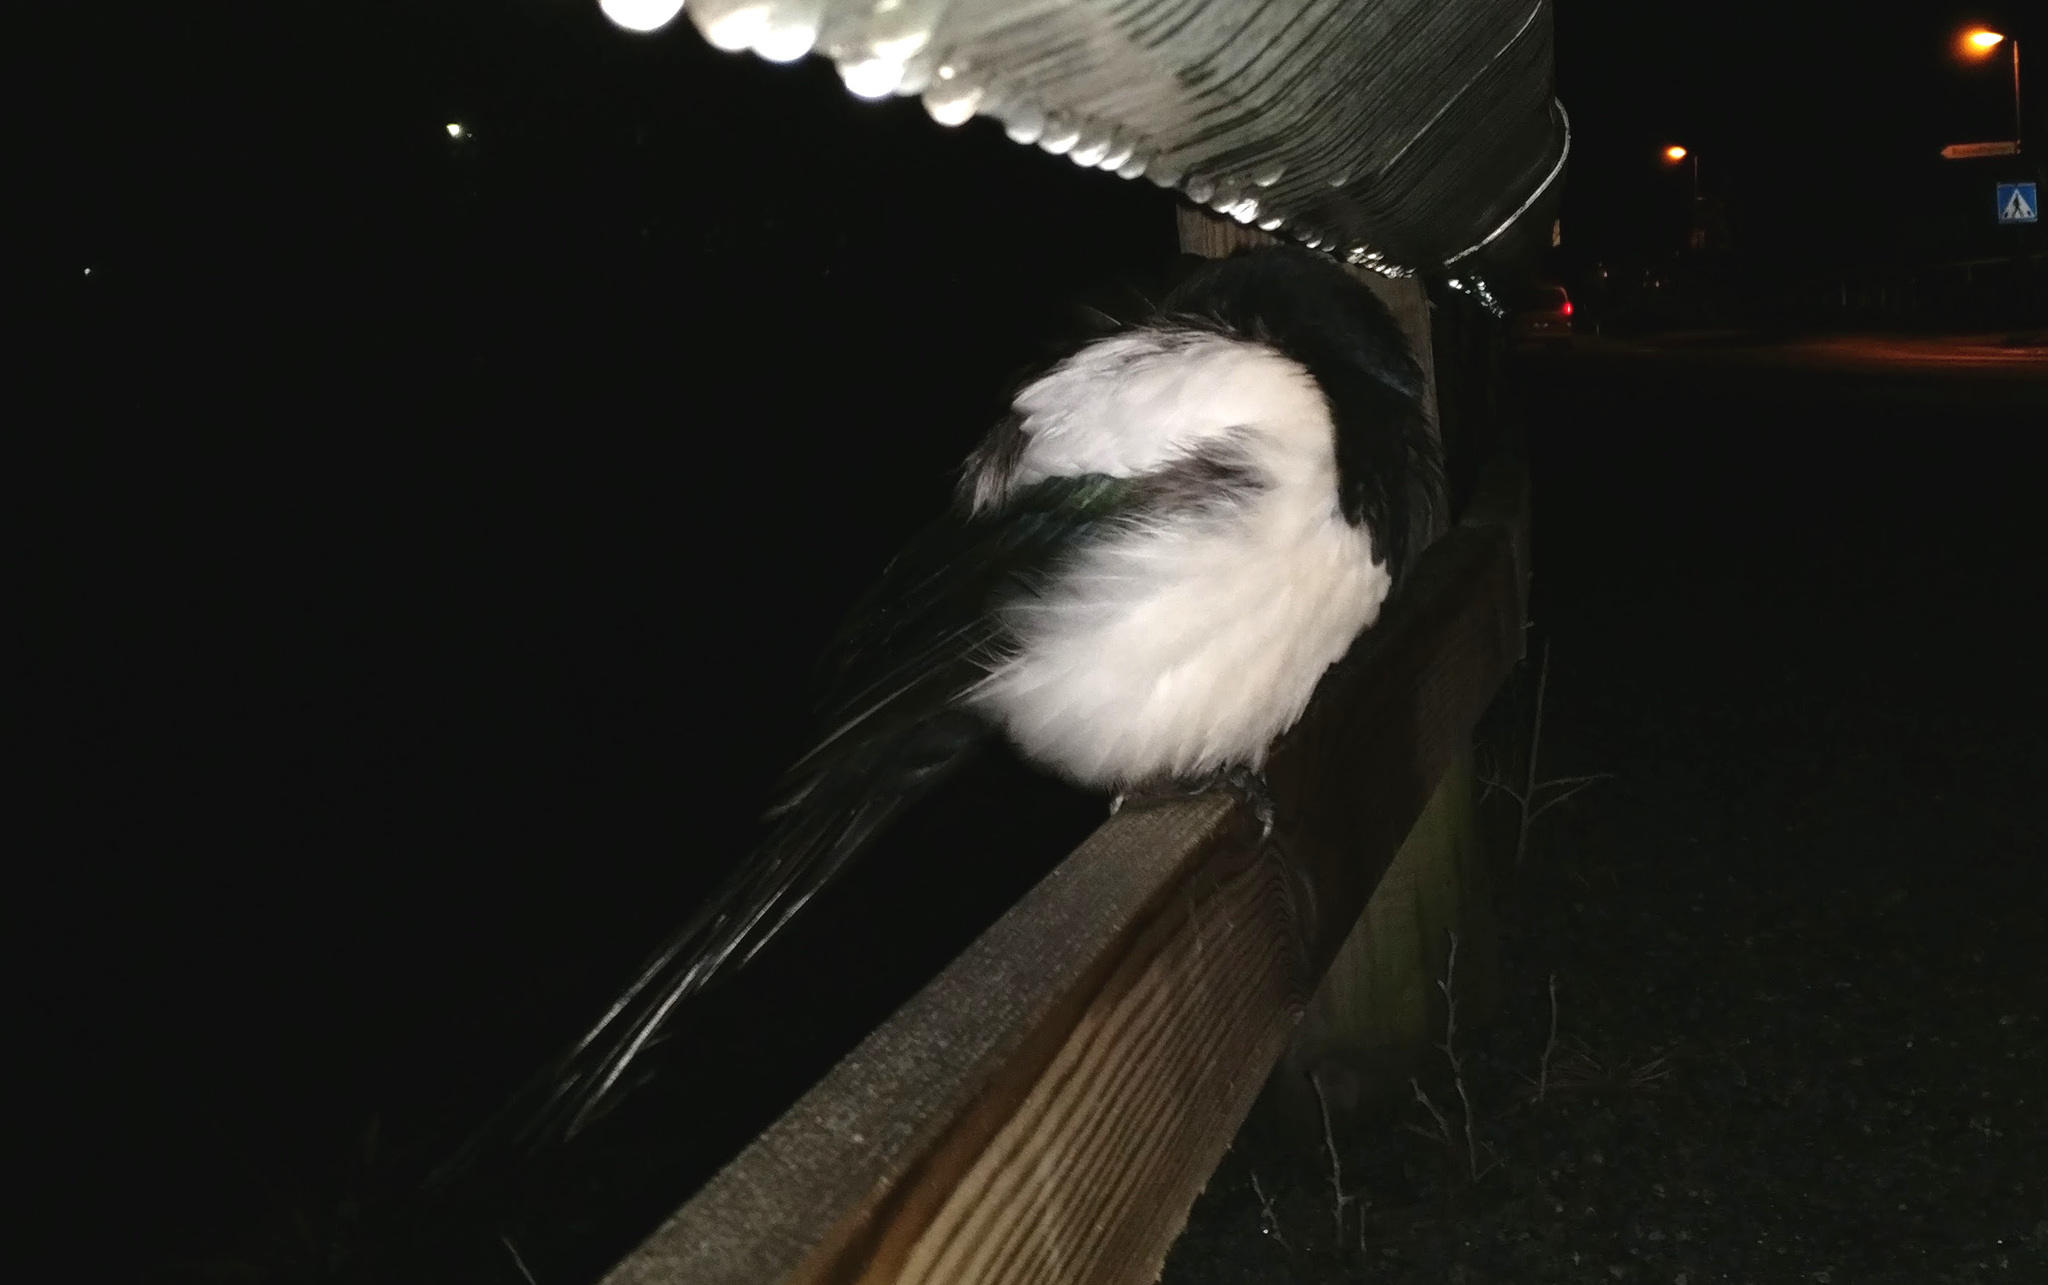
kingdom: Animalia
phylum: Chordata
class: Aves
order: Passeriformes
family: Corvidae
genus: Pica
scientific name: Pica pica
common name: Eurasian magpie
